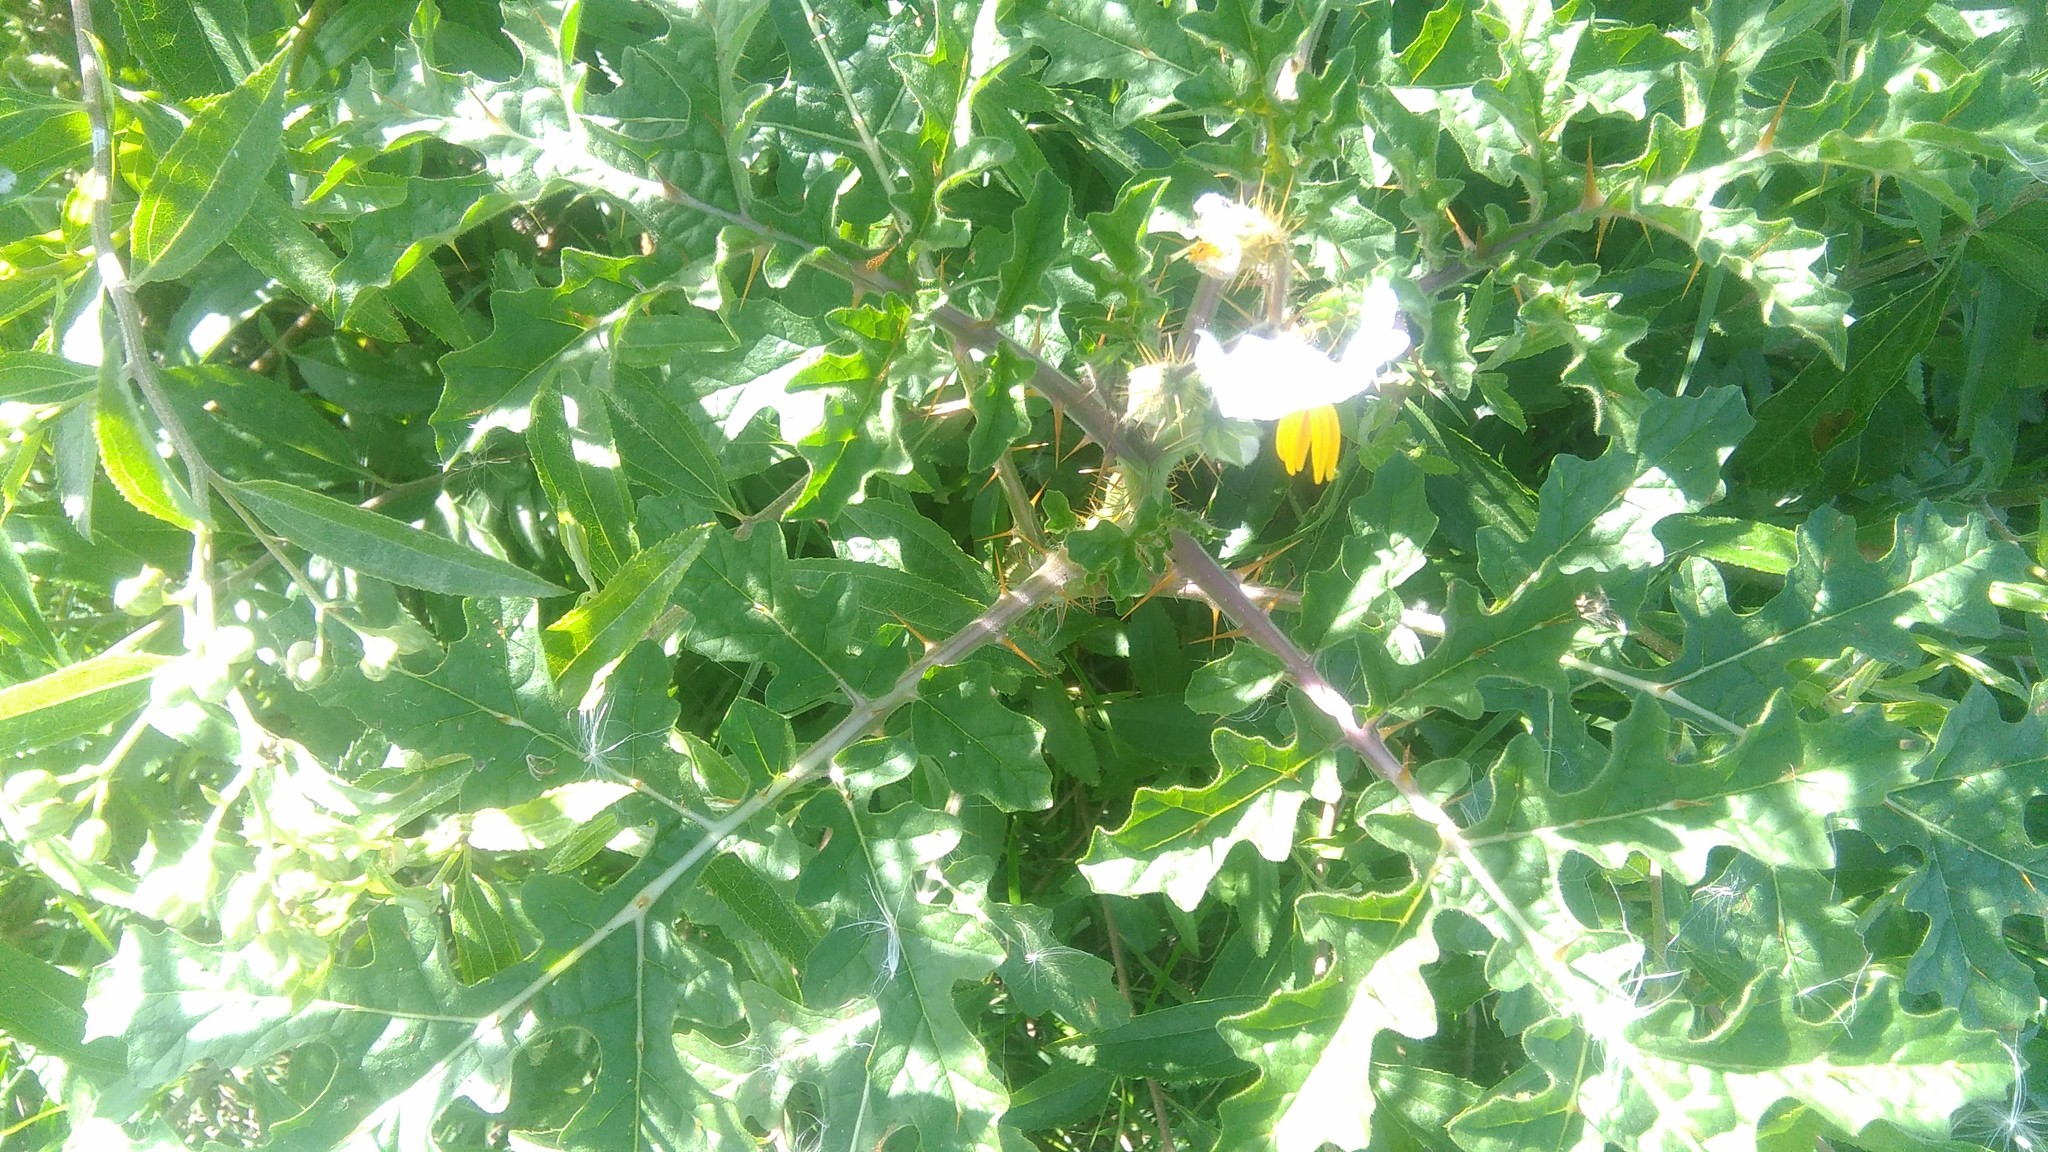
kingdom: Plantae
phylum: Tracheophyta
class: Magnoliopsida
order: Solanales
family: Solanaceae
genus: Solanum
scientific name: Solanum sisymbriifolium
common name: Red buffalo-bur
